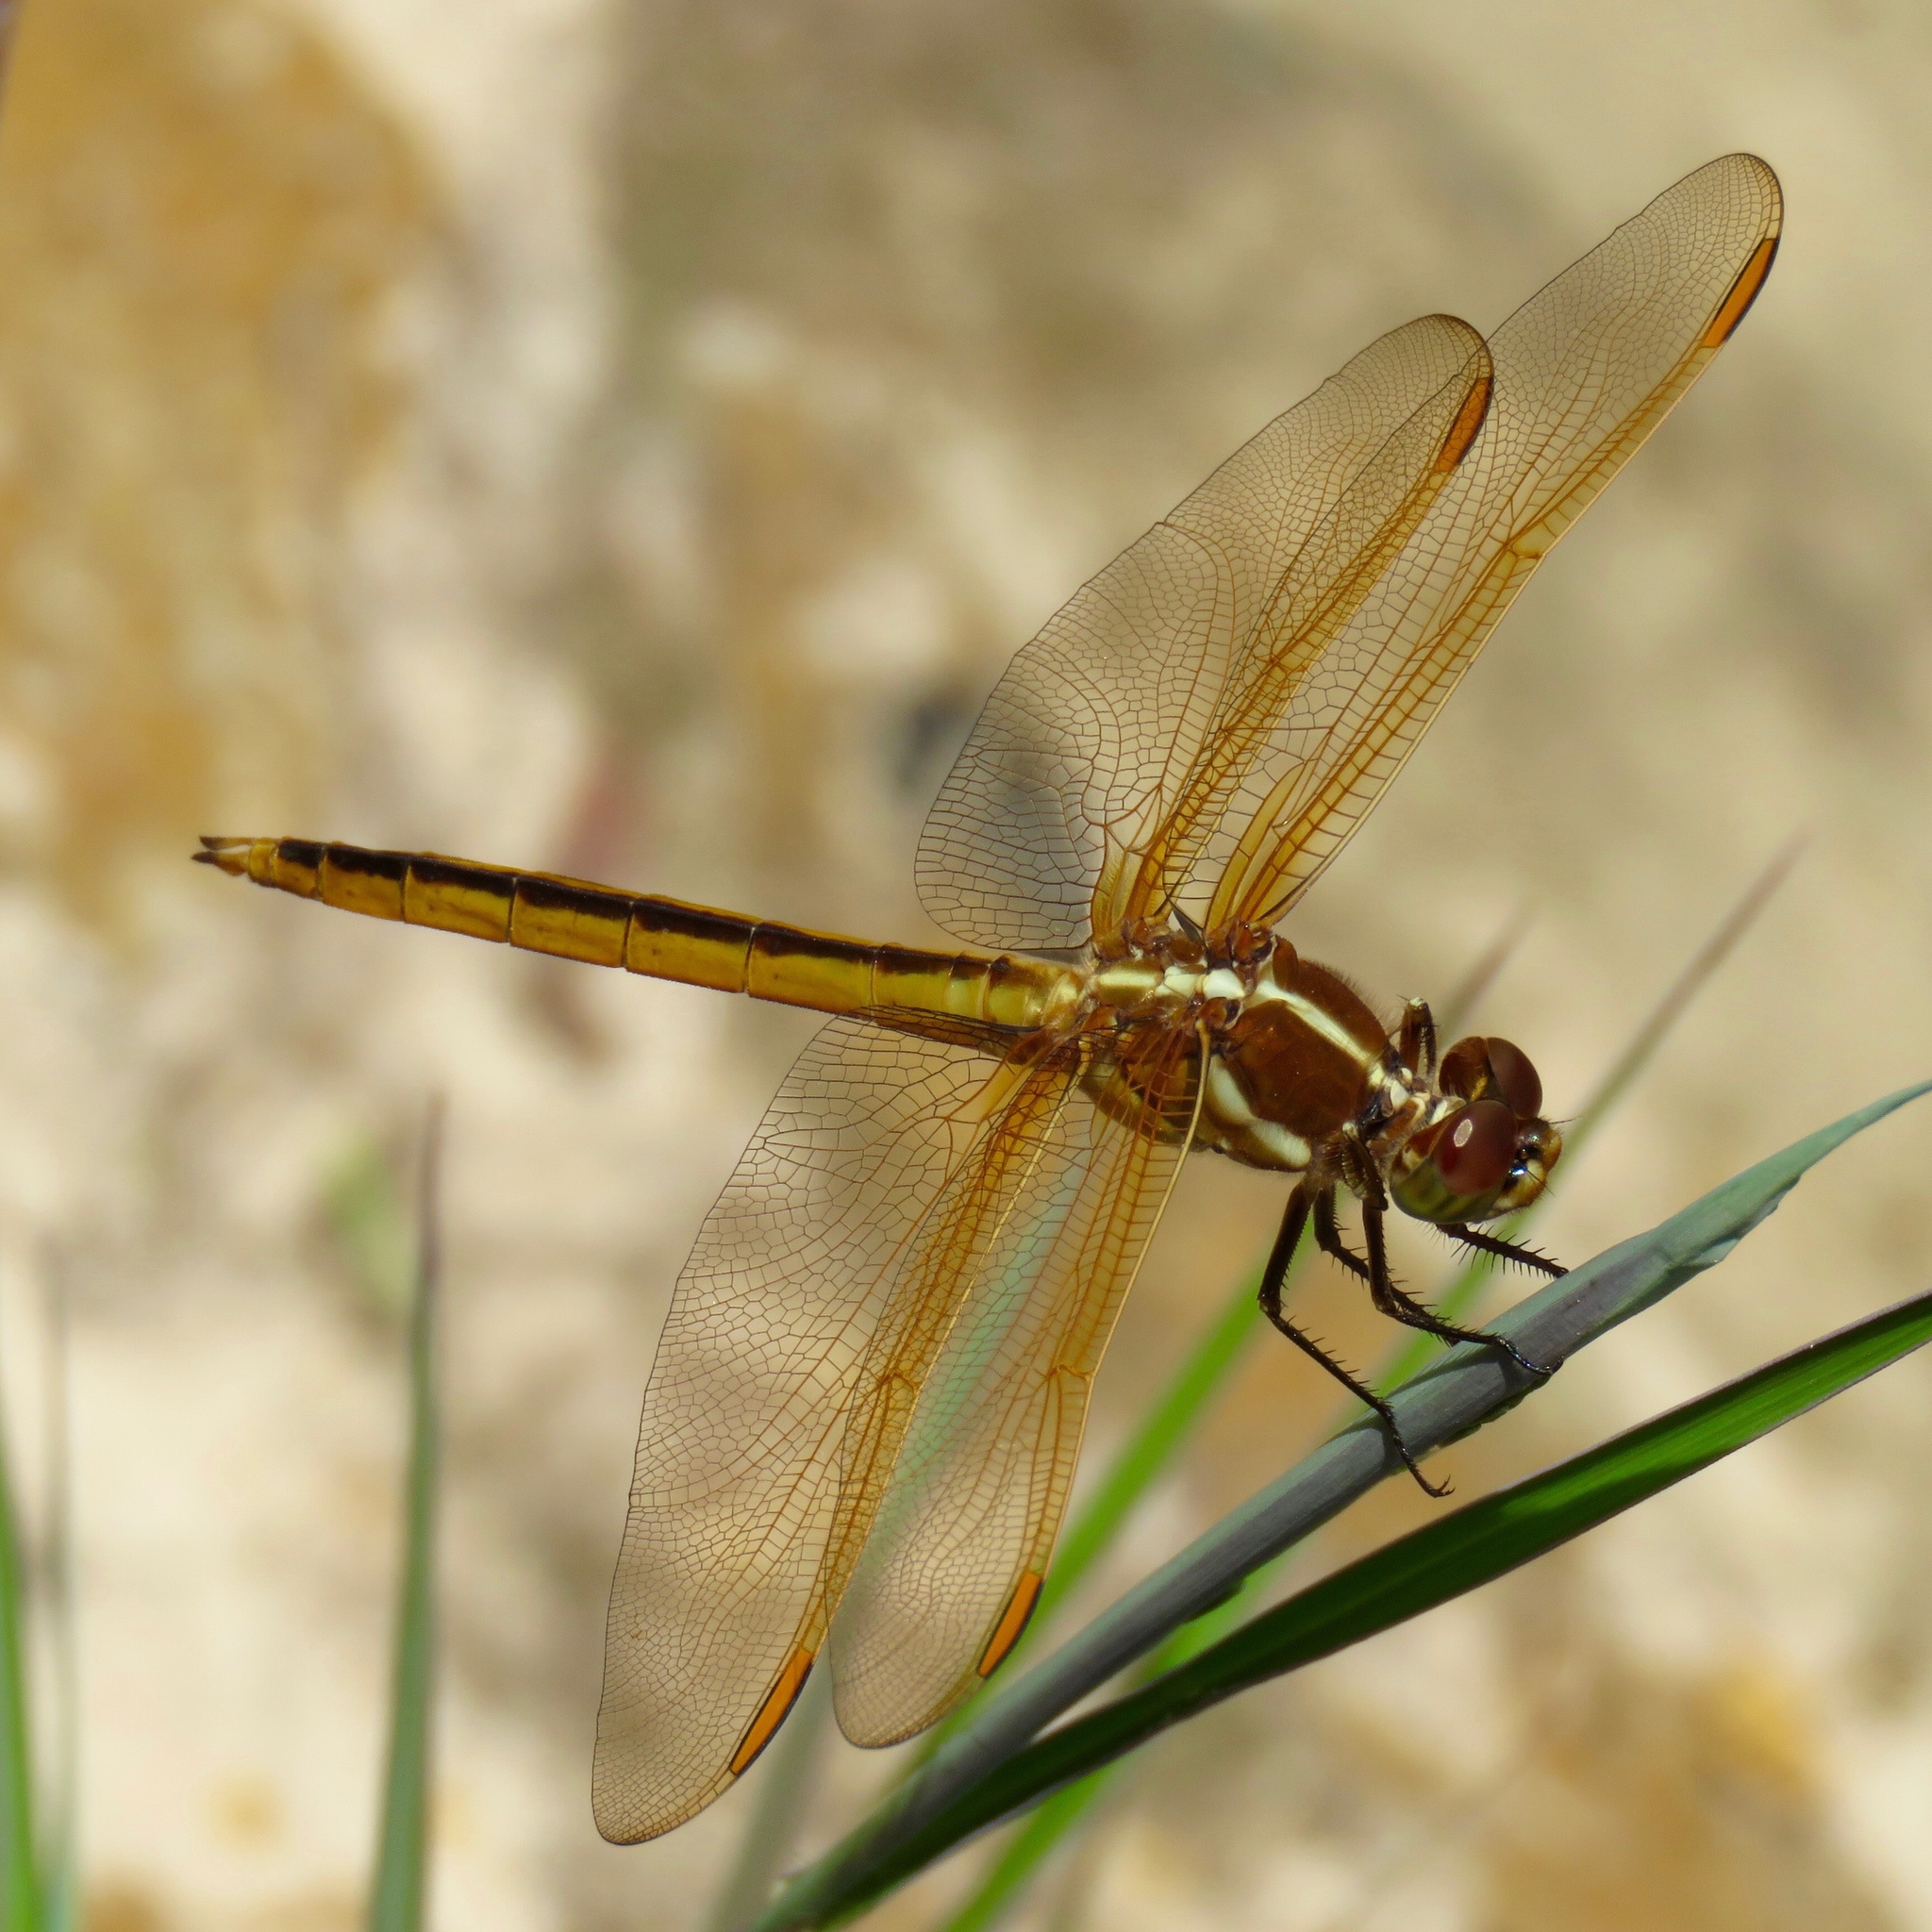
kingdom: Animalia
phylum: Arthropoda
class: Insecta
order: Odonata
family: Libellulidae
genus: Libellula
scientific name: Libellula auripennis
